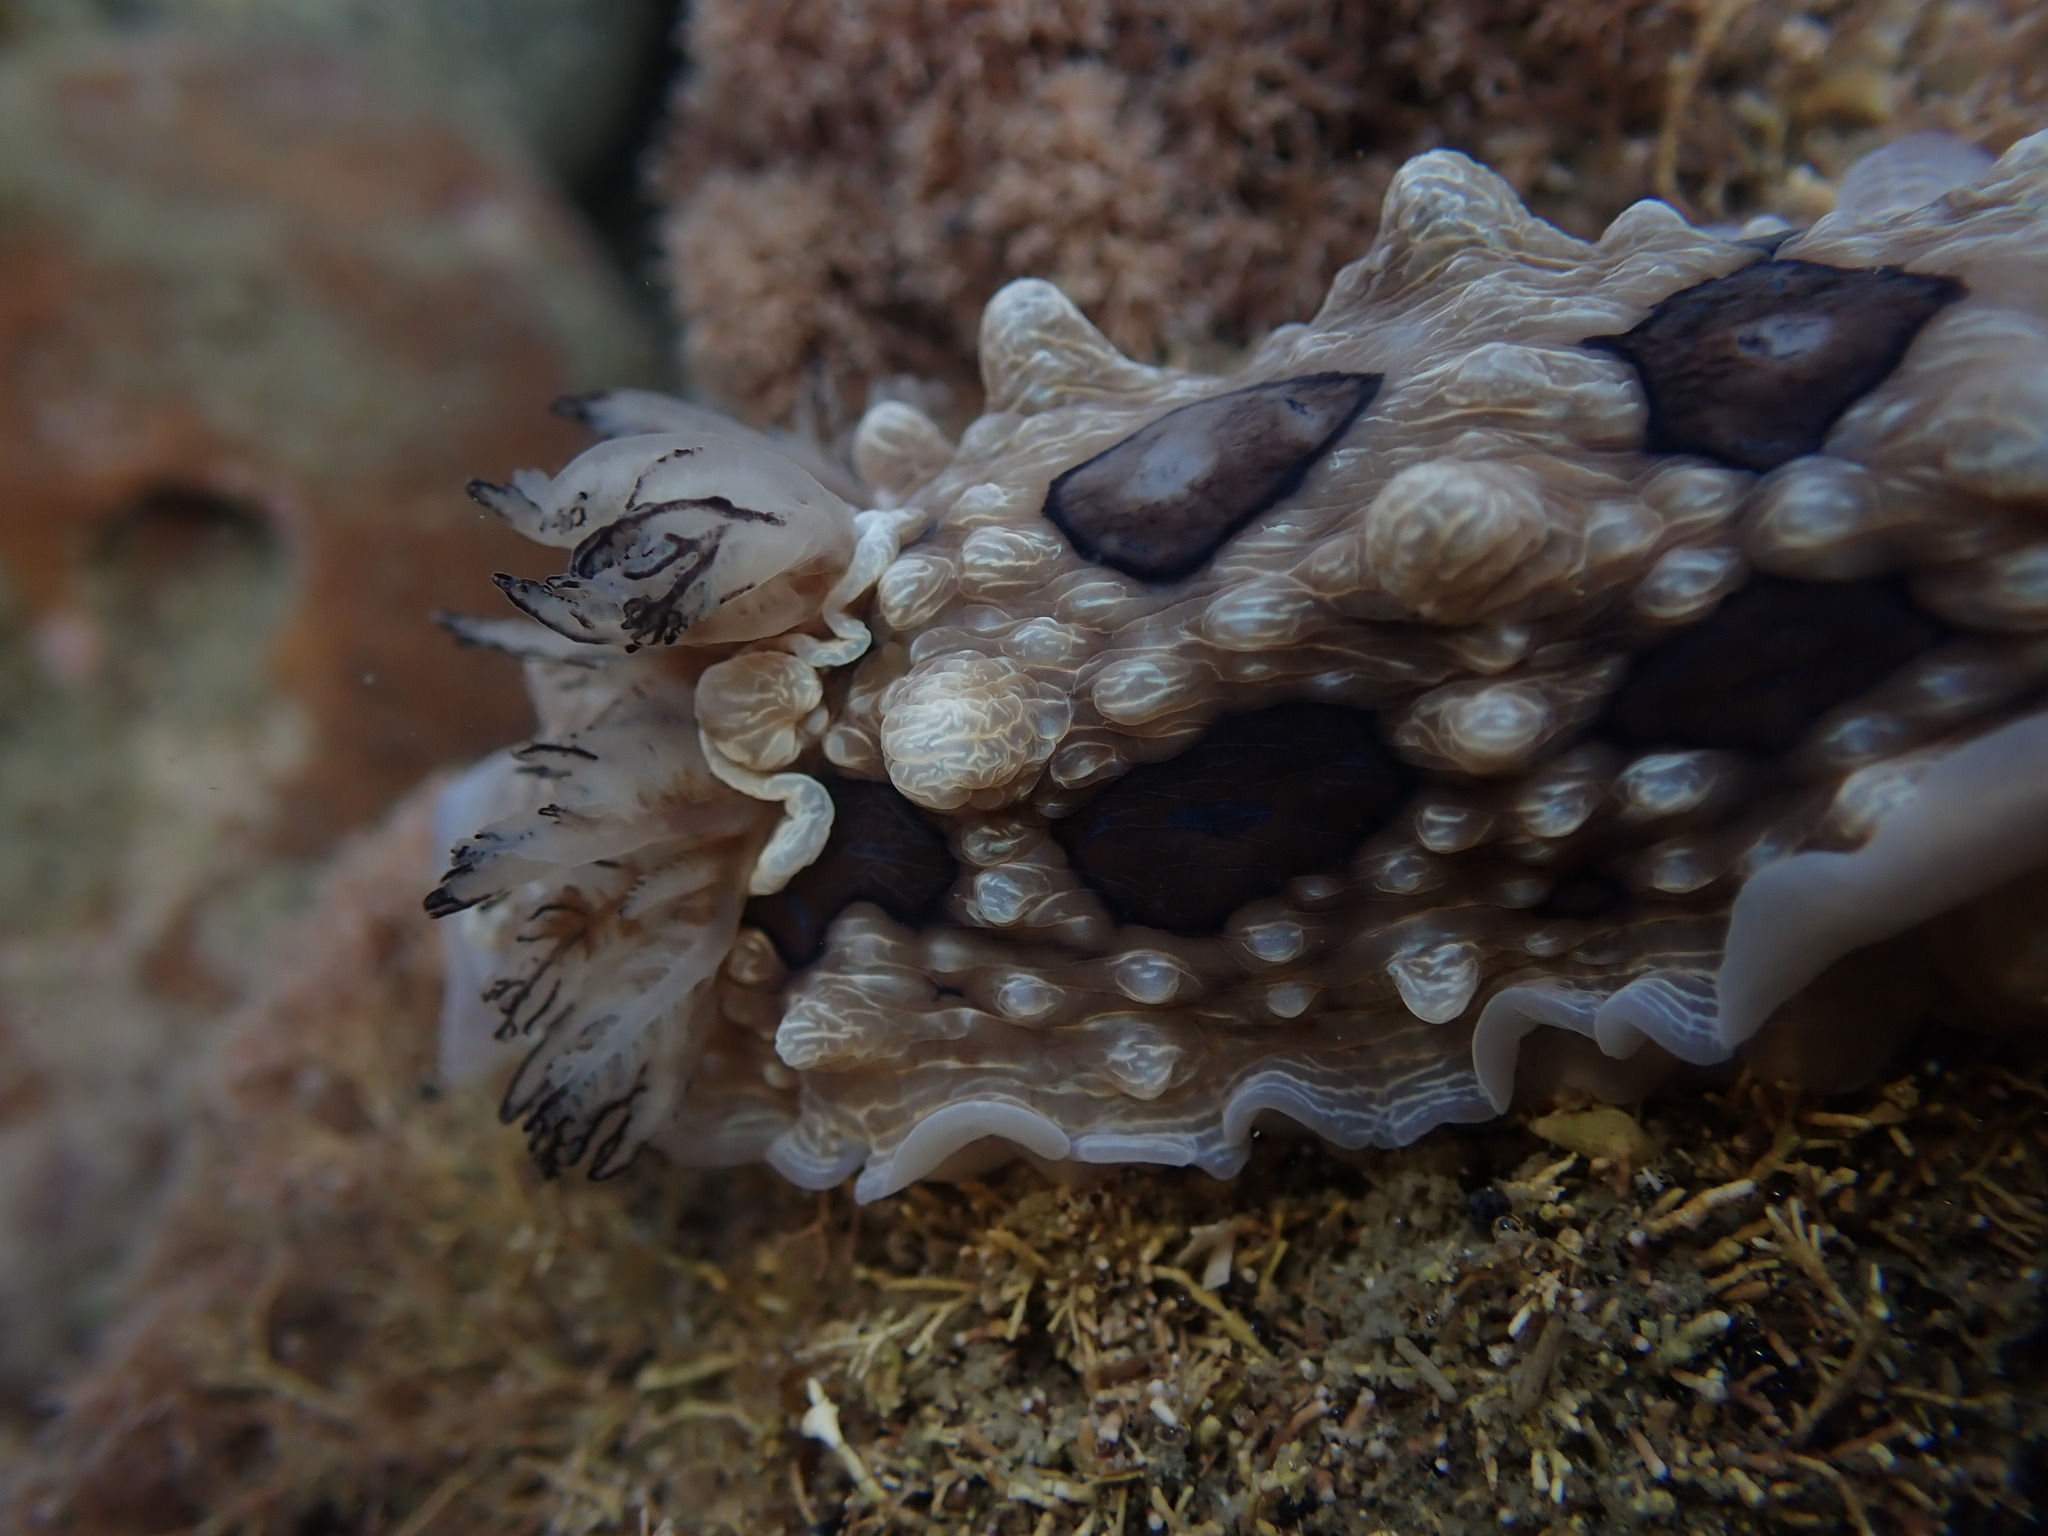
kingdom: Animalia
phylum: Mollusca
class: Gastropoda
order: Nudibranchia
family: Dendrodorididae
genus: Dendrodoris
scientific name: Dendrodoris krusensternii
